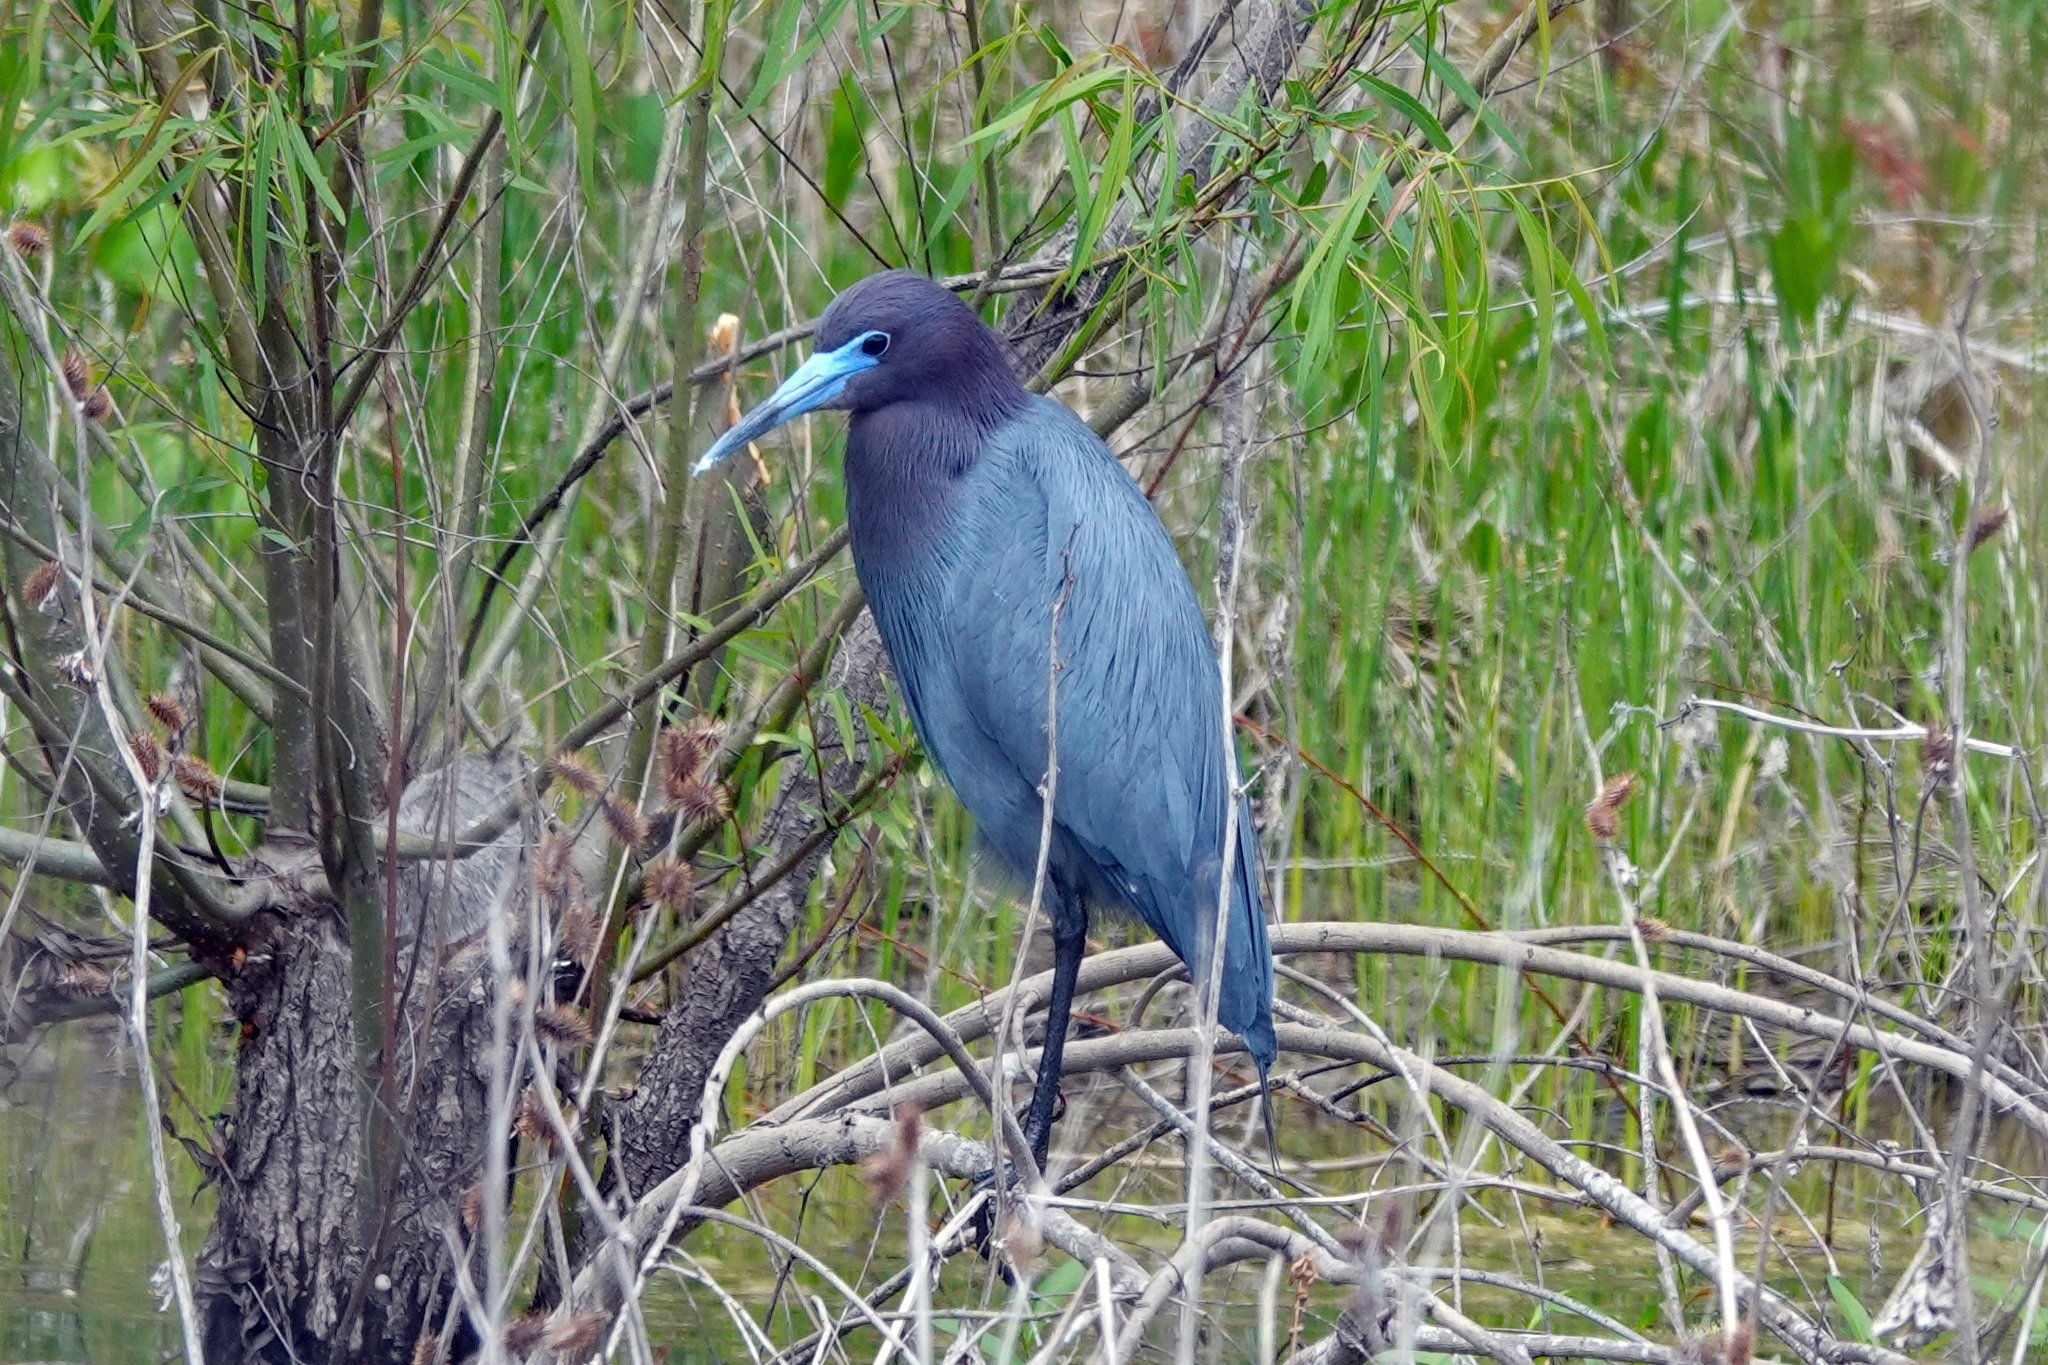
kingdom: Animalia
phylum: Chordata
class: Aves
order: Pelecaniformes
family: Ardeidae
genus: Egretta
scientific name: Egretta caerulea
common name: Little blue heron
